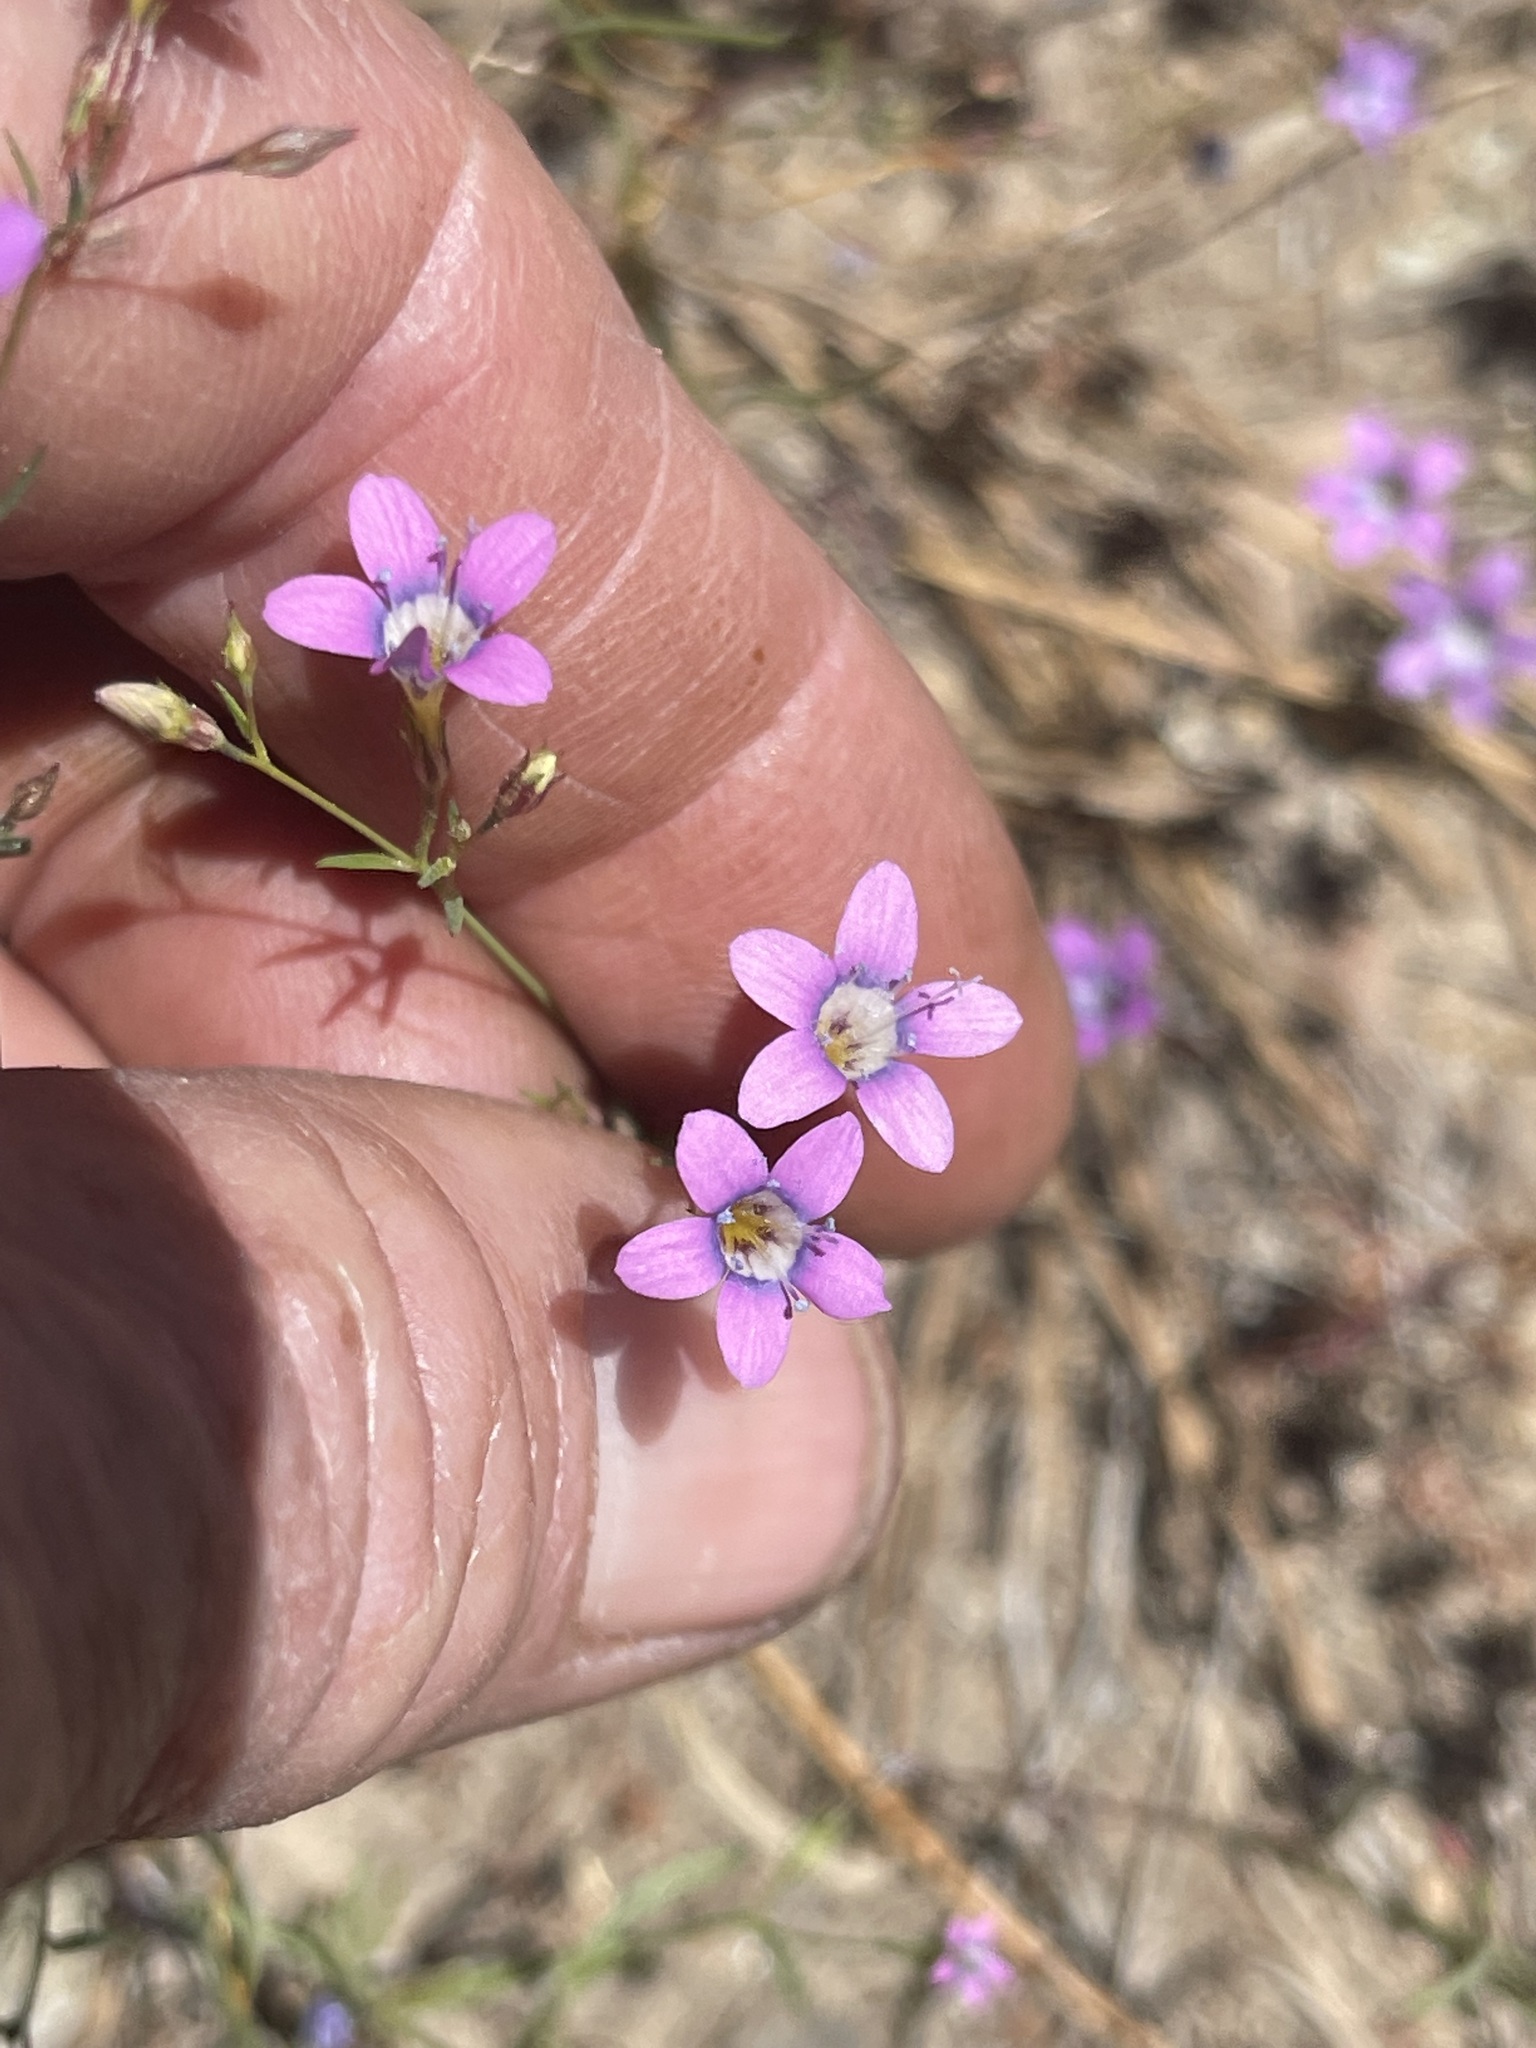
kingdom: Plantae
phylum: Tracheophyta
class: Magnoliopsida
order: Ericales
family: Polemoniaceae
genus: Navarretia
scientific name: Navarretia leptalea
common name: Bridges' pincushionplant
